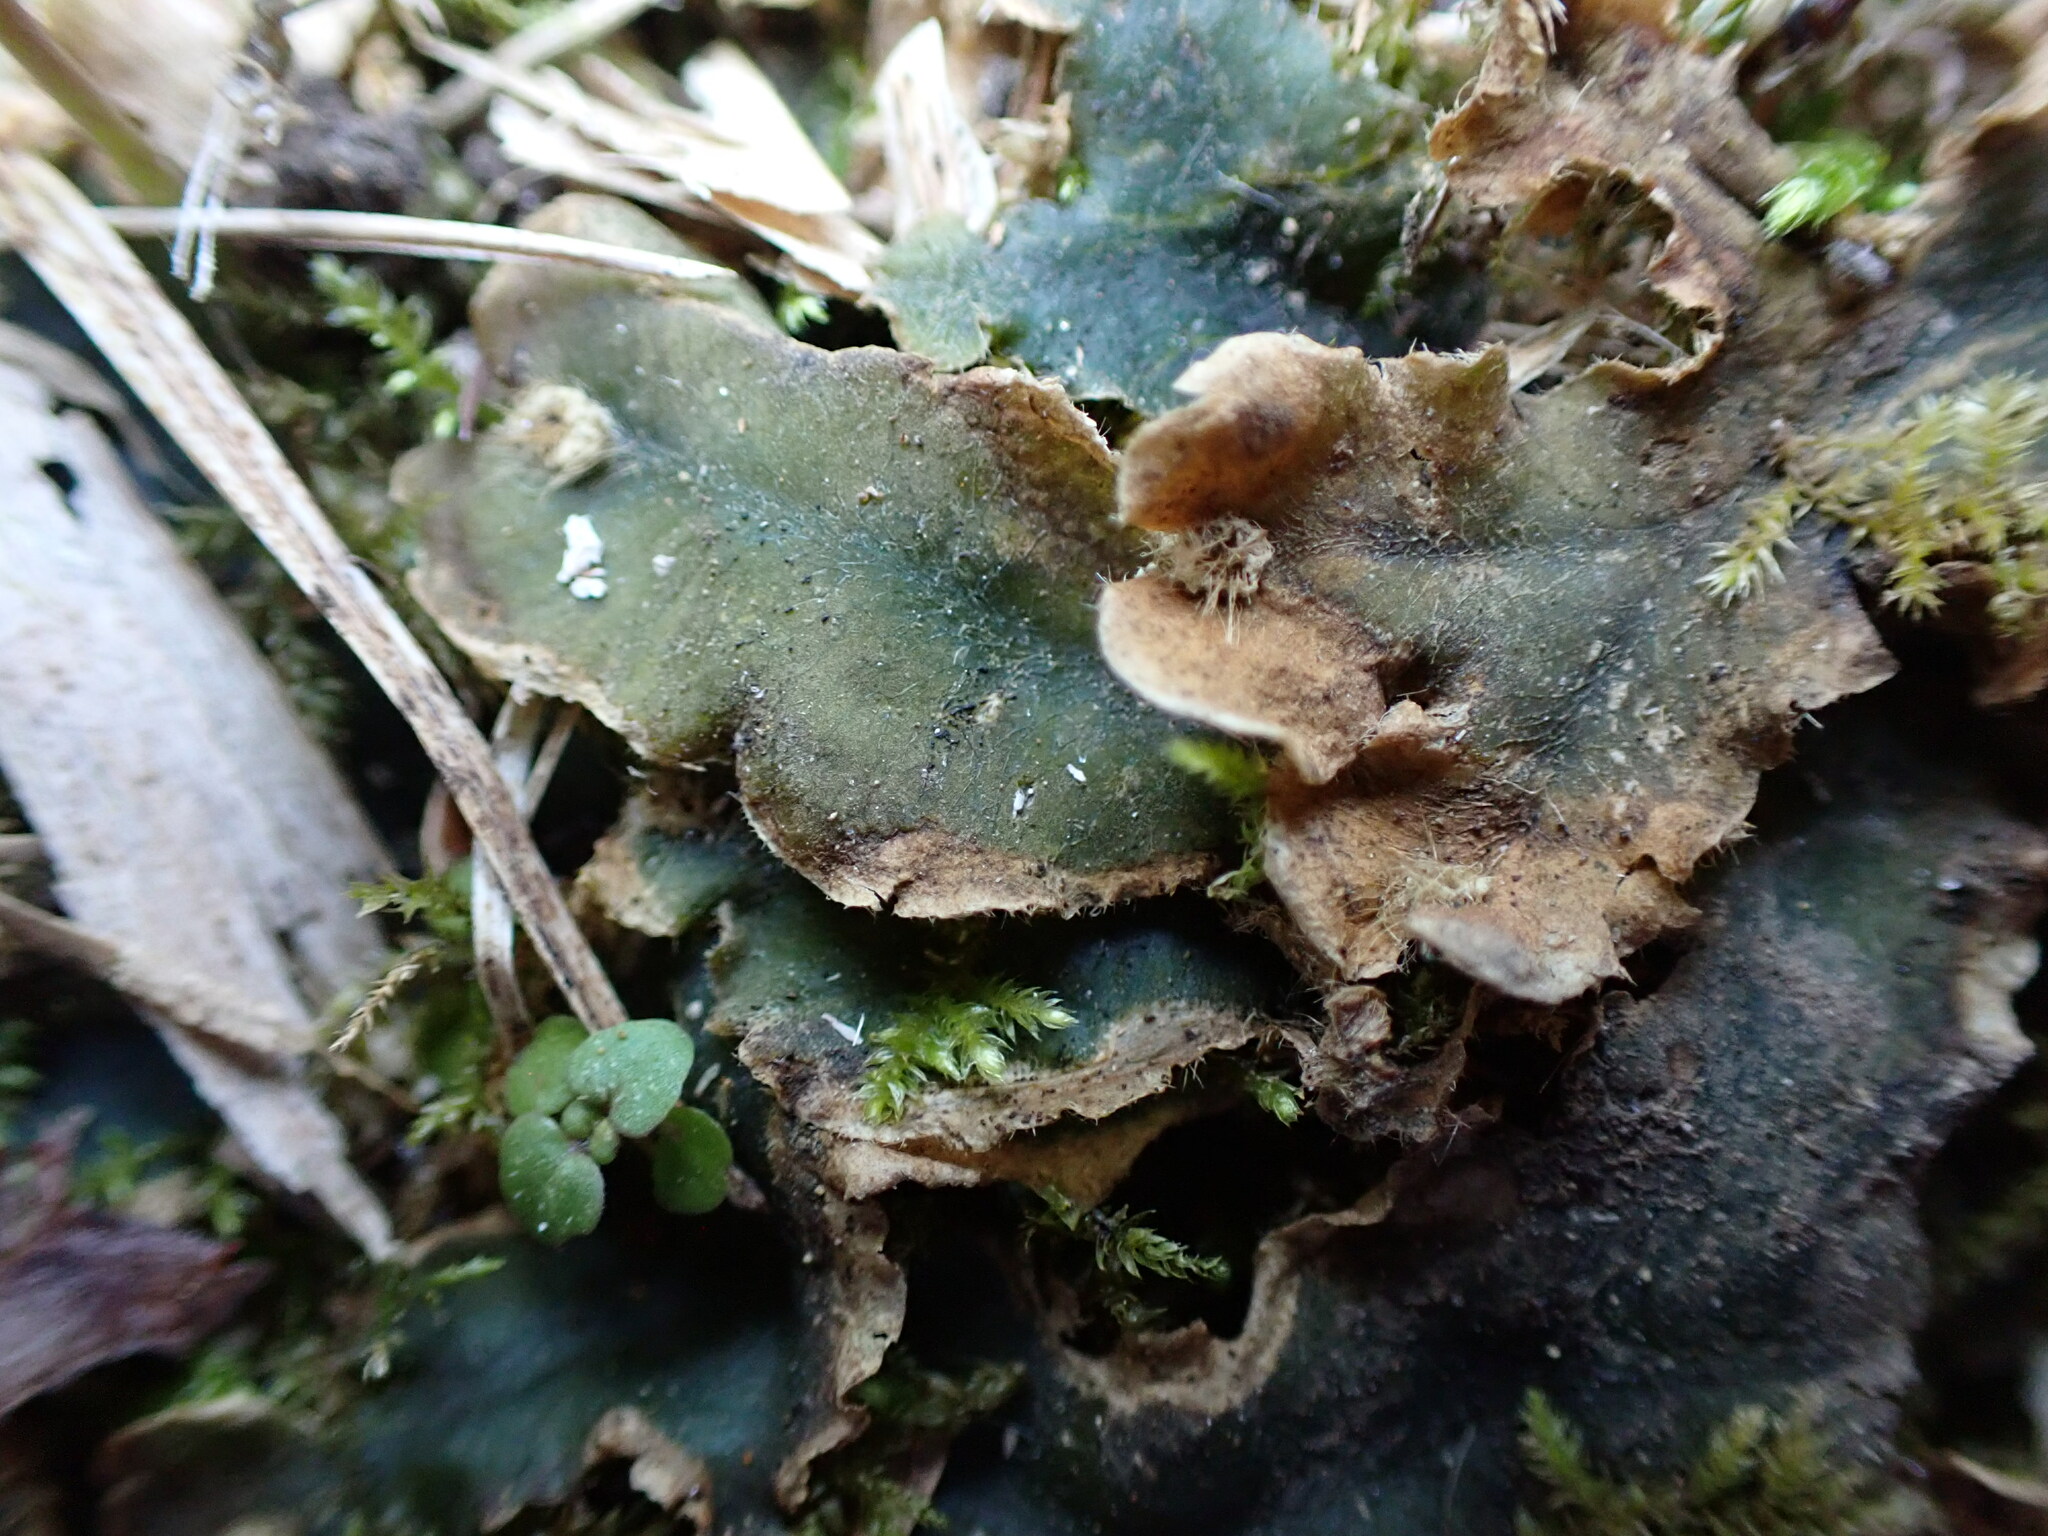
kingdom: Plantae
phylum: Marchantiophyta
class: Marchantiopsida
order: Marchantiales
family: Dumortieraceae
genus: Dumortiera
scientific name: Dumortiera hirsuta
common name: Dumortier's liverwort
